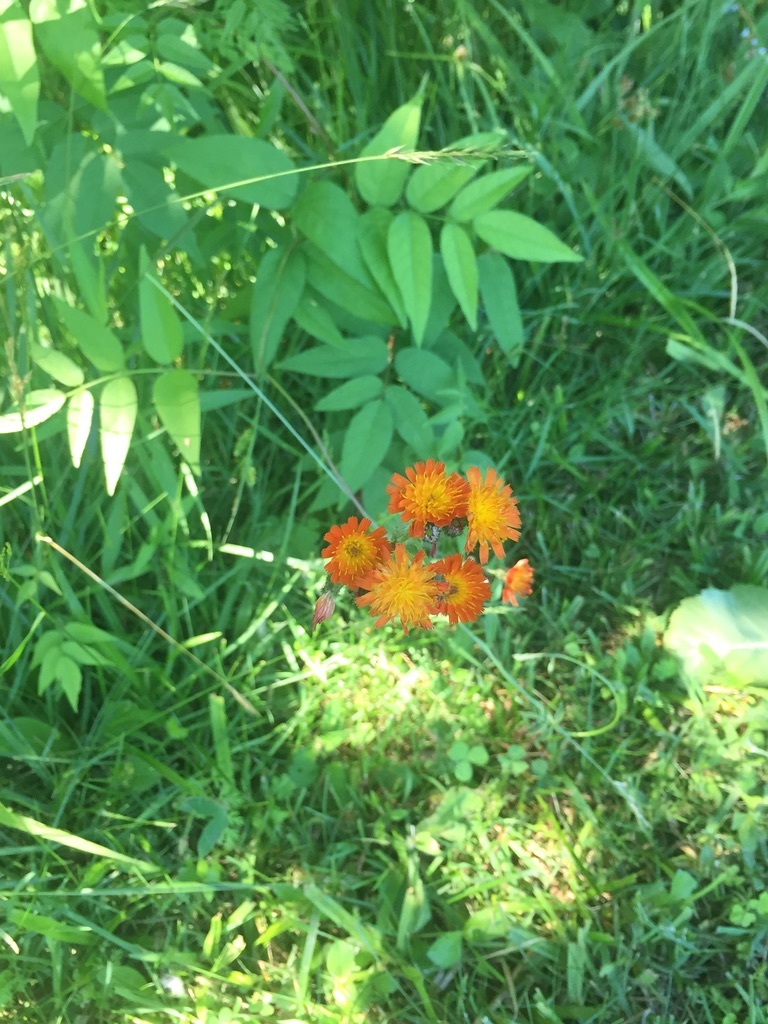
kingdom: Plantae
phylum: Tracheophyta
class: Magnoliopsida
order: Asterales
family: Asteraceae
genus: Pilosella
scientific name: Pilosella aurantiaca
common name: Fox-and-cubs
